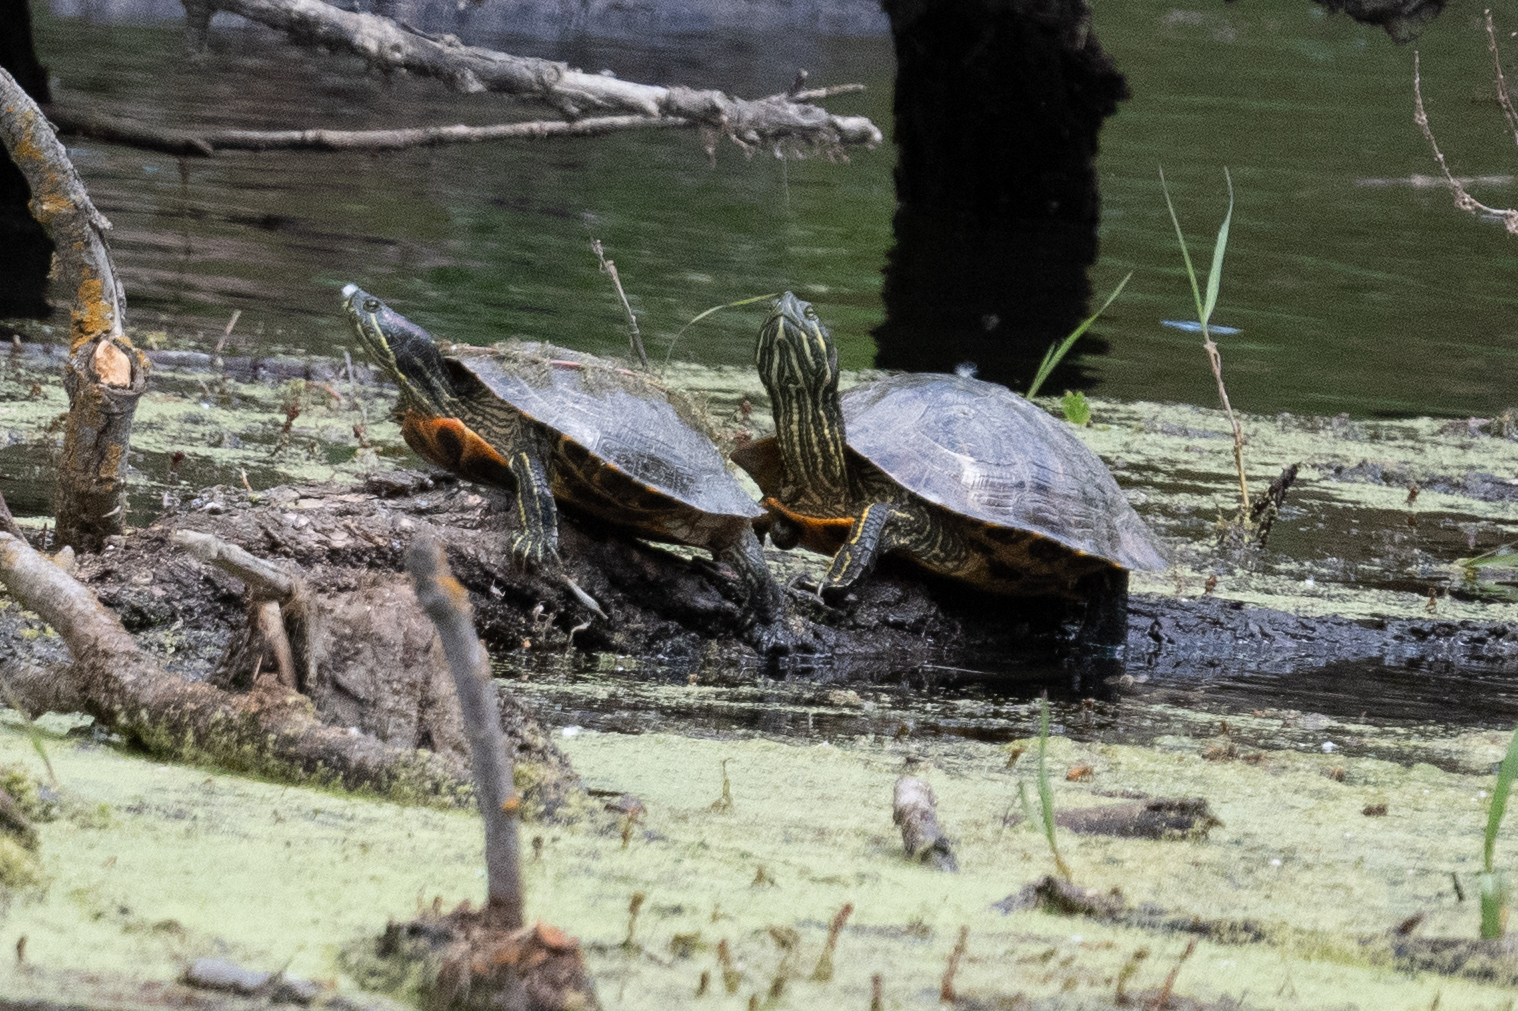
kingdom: Animalia
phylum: Chordata
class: Testudines
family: Emydidae
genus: Trachemys
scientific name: Trachemys scripta
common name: Slider
